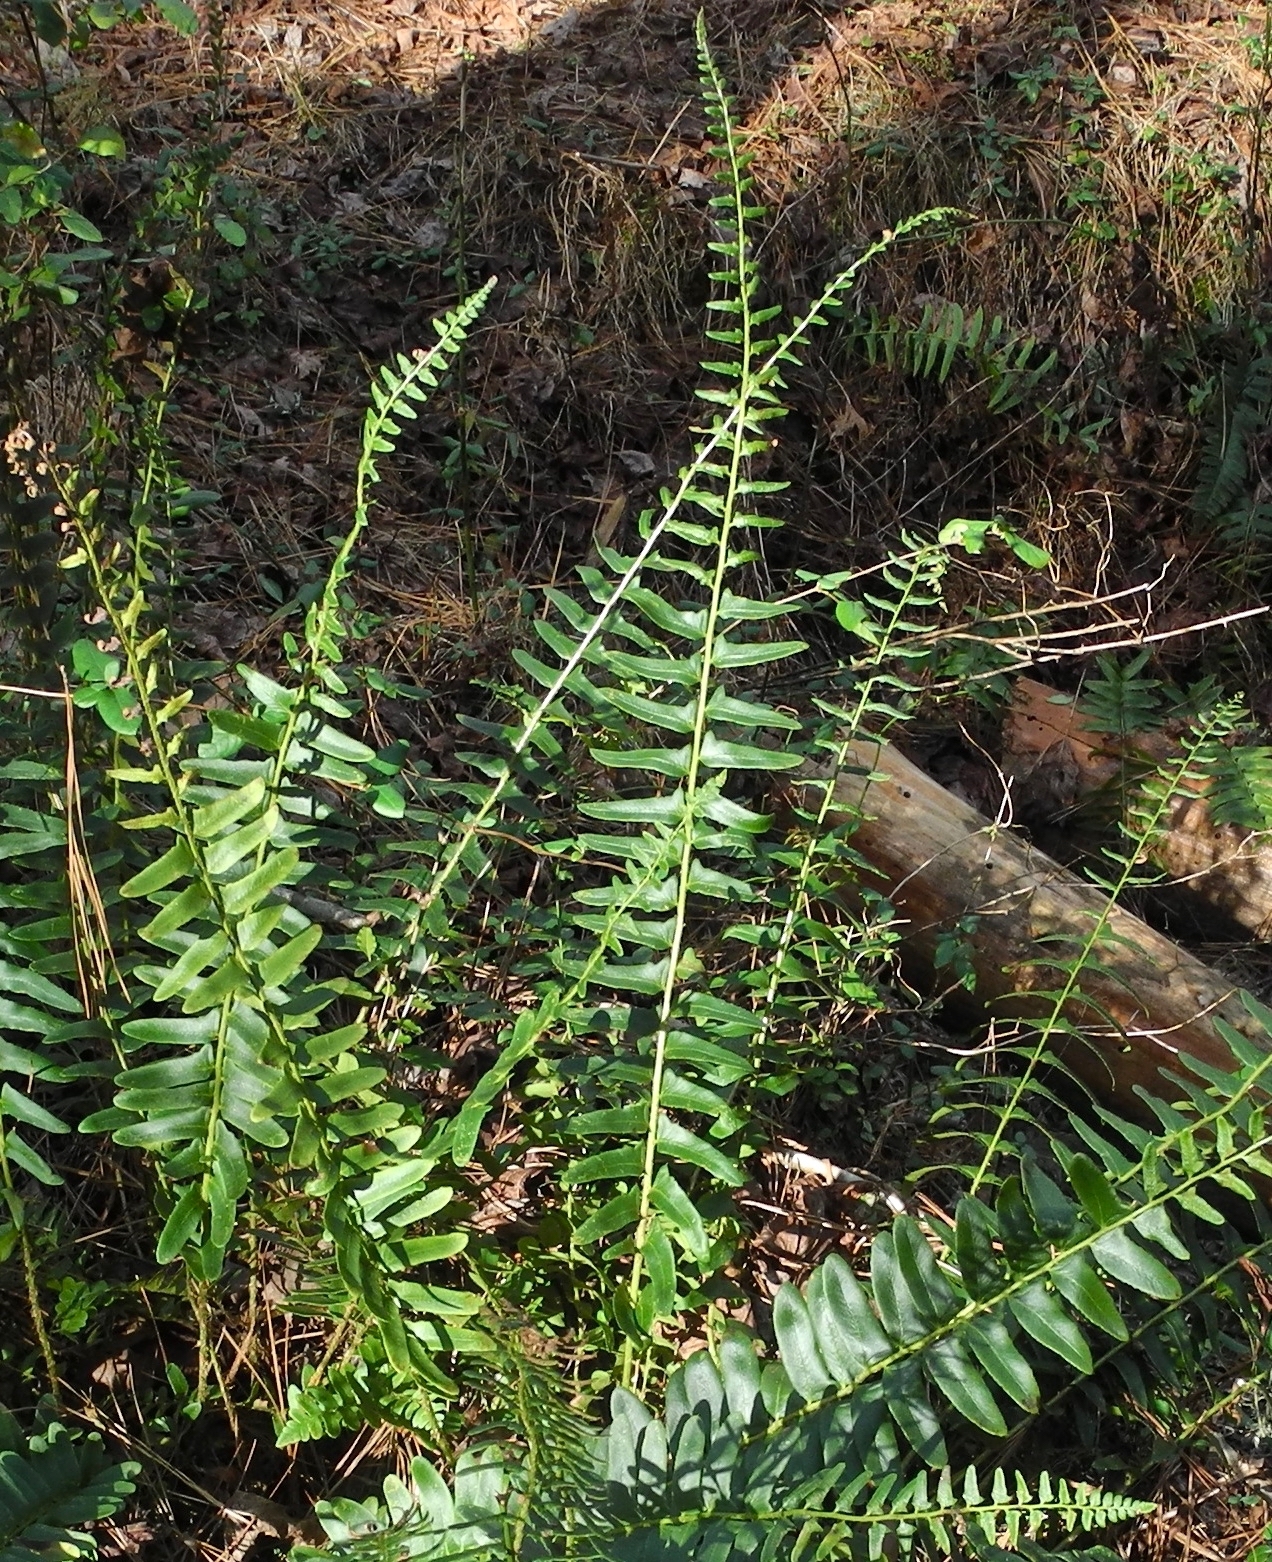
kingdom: Plantae
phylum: Tracheophyta
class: Polypodiopsida
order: Polypodiales
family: Dryopteridaceae
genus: Polystichum
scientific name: Polystichum acrostichoides
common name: Christmas fern
